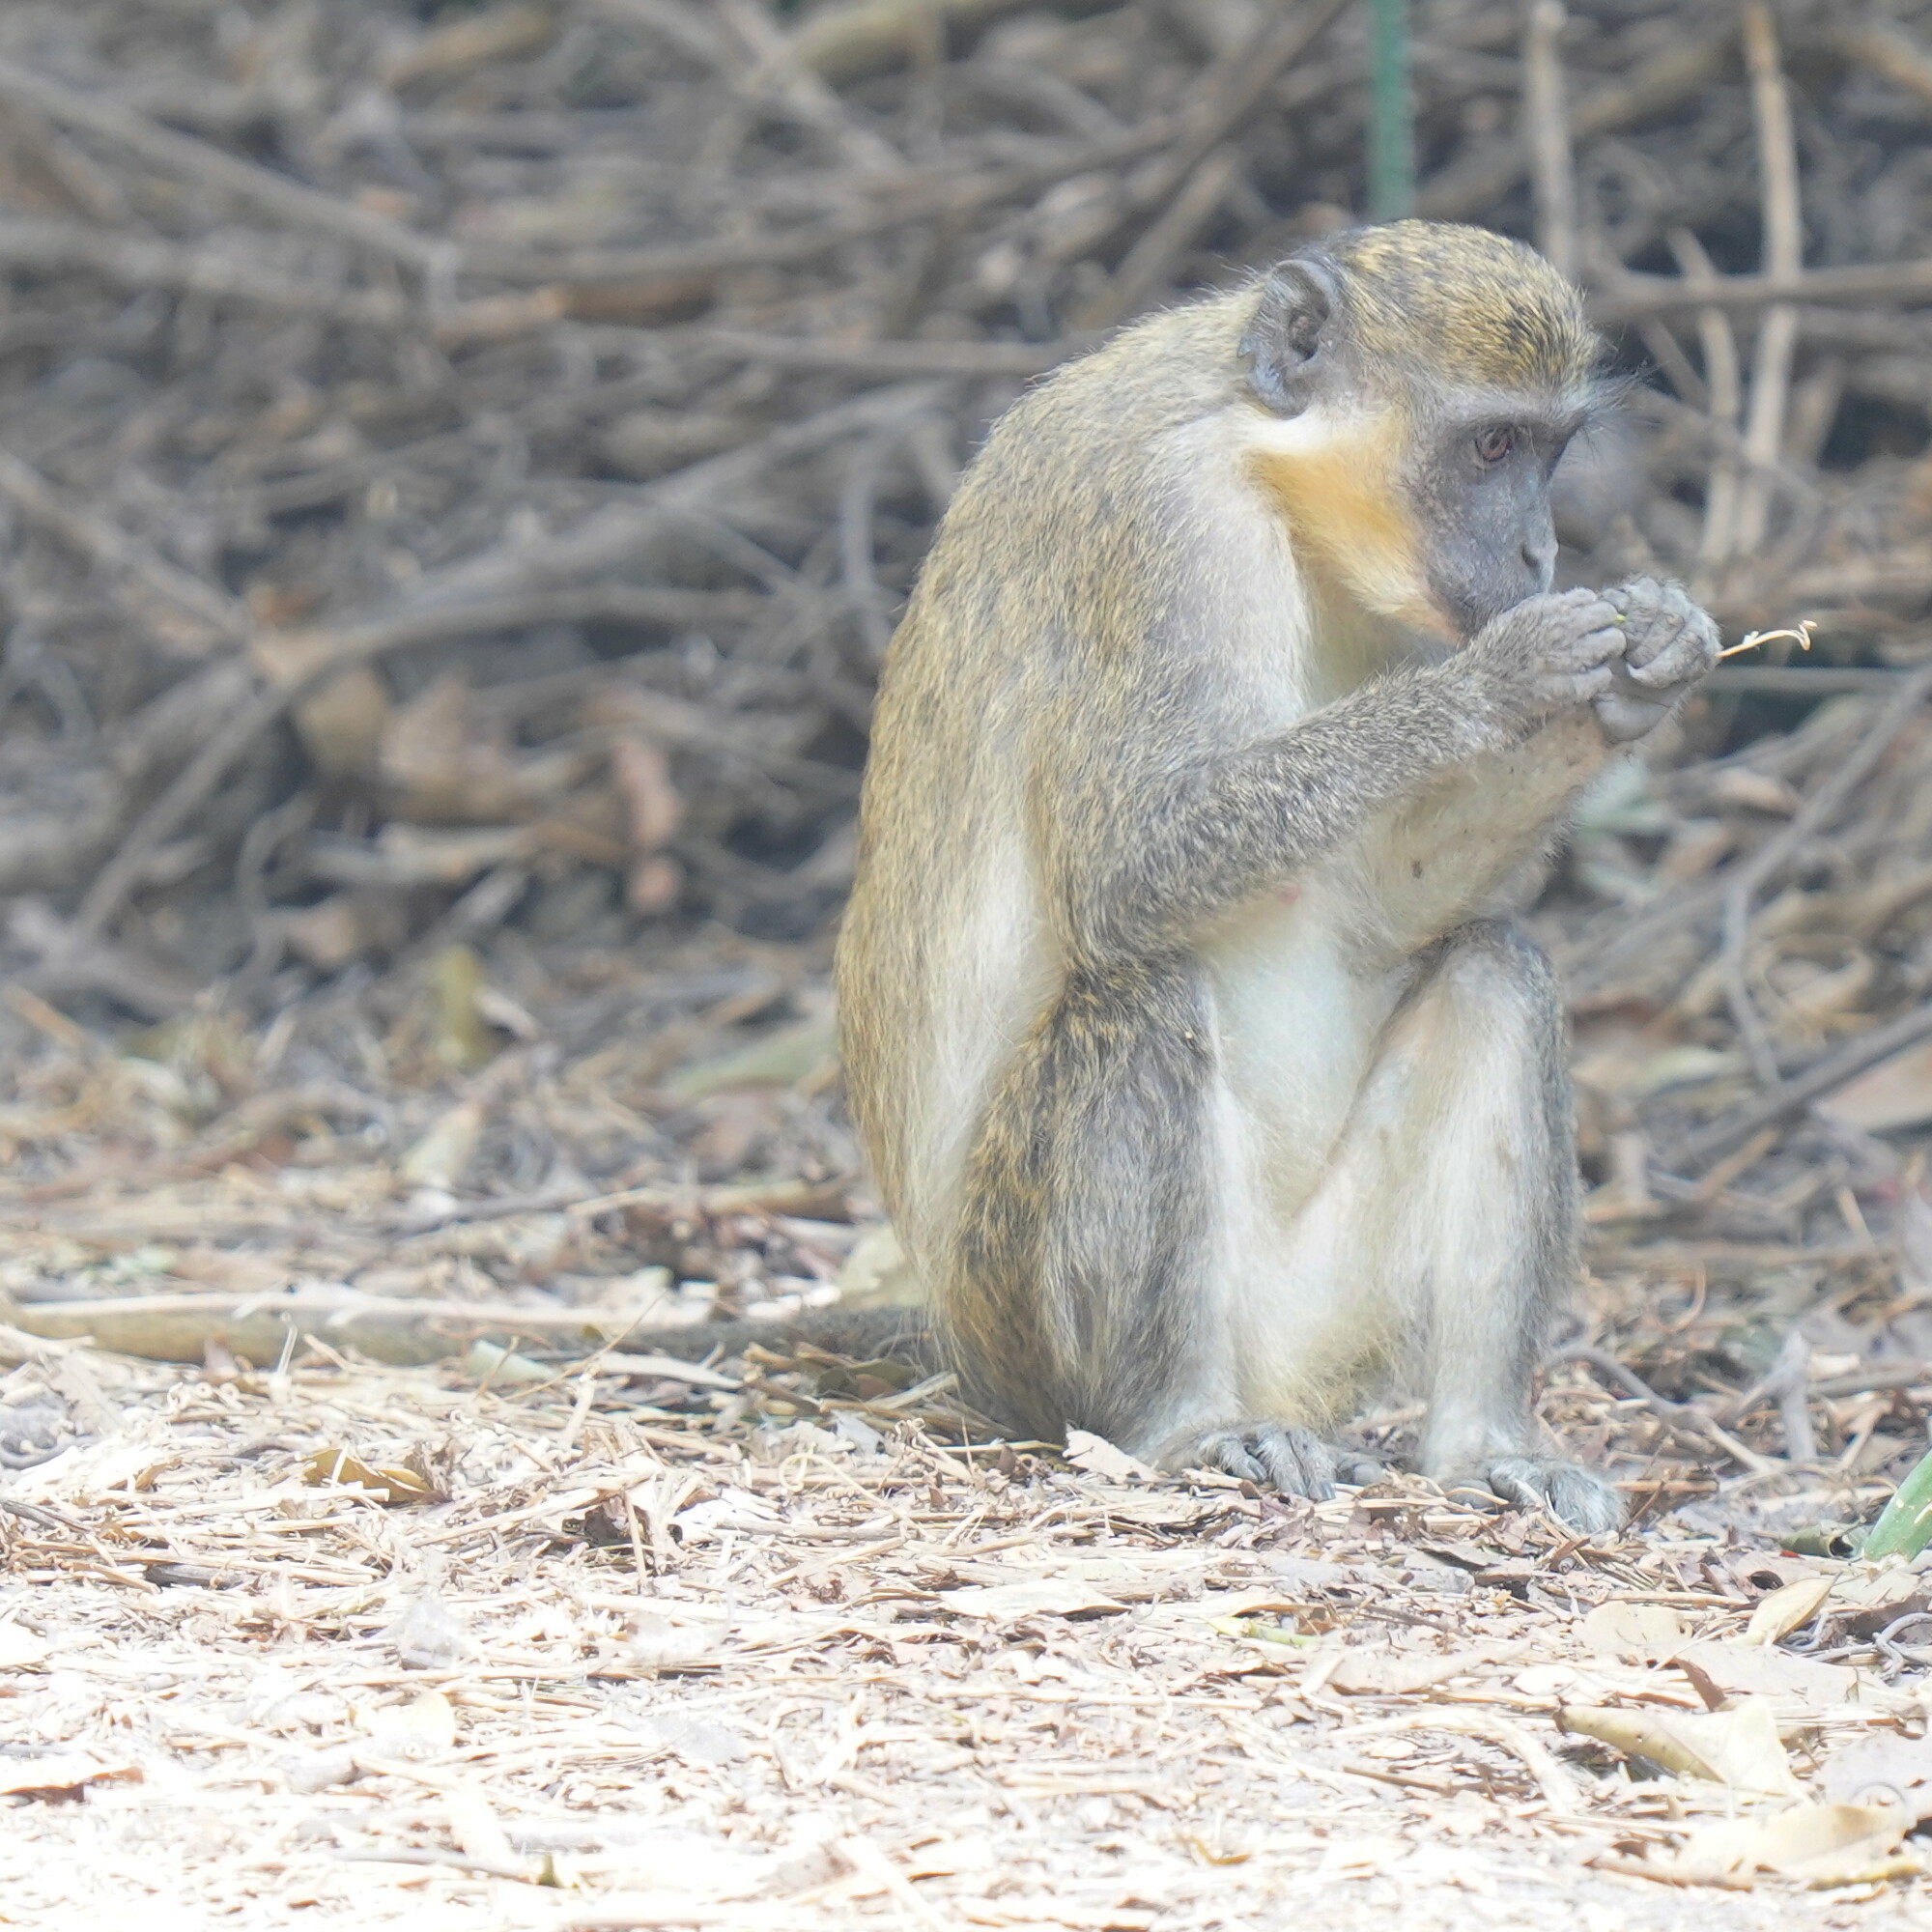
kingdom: Animalia
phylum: Chordata
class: Mammalia
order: Primates
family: Cercopithecidae
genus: Chlorocebus
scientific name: Chlorocebus sabaeus
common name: Green monkey
